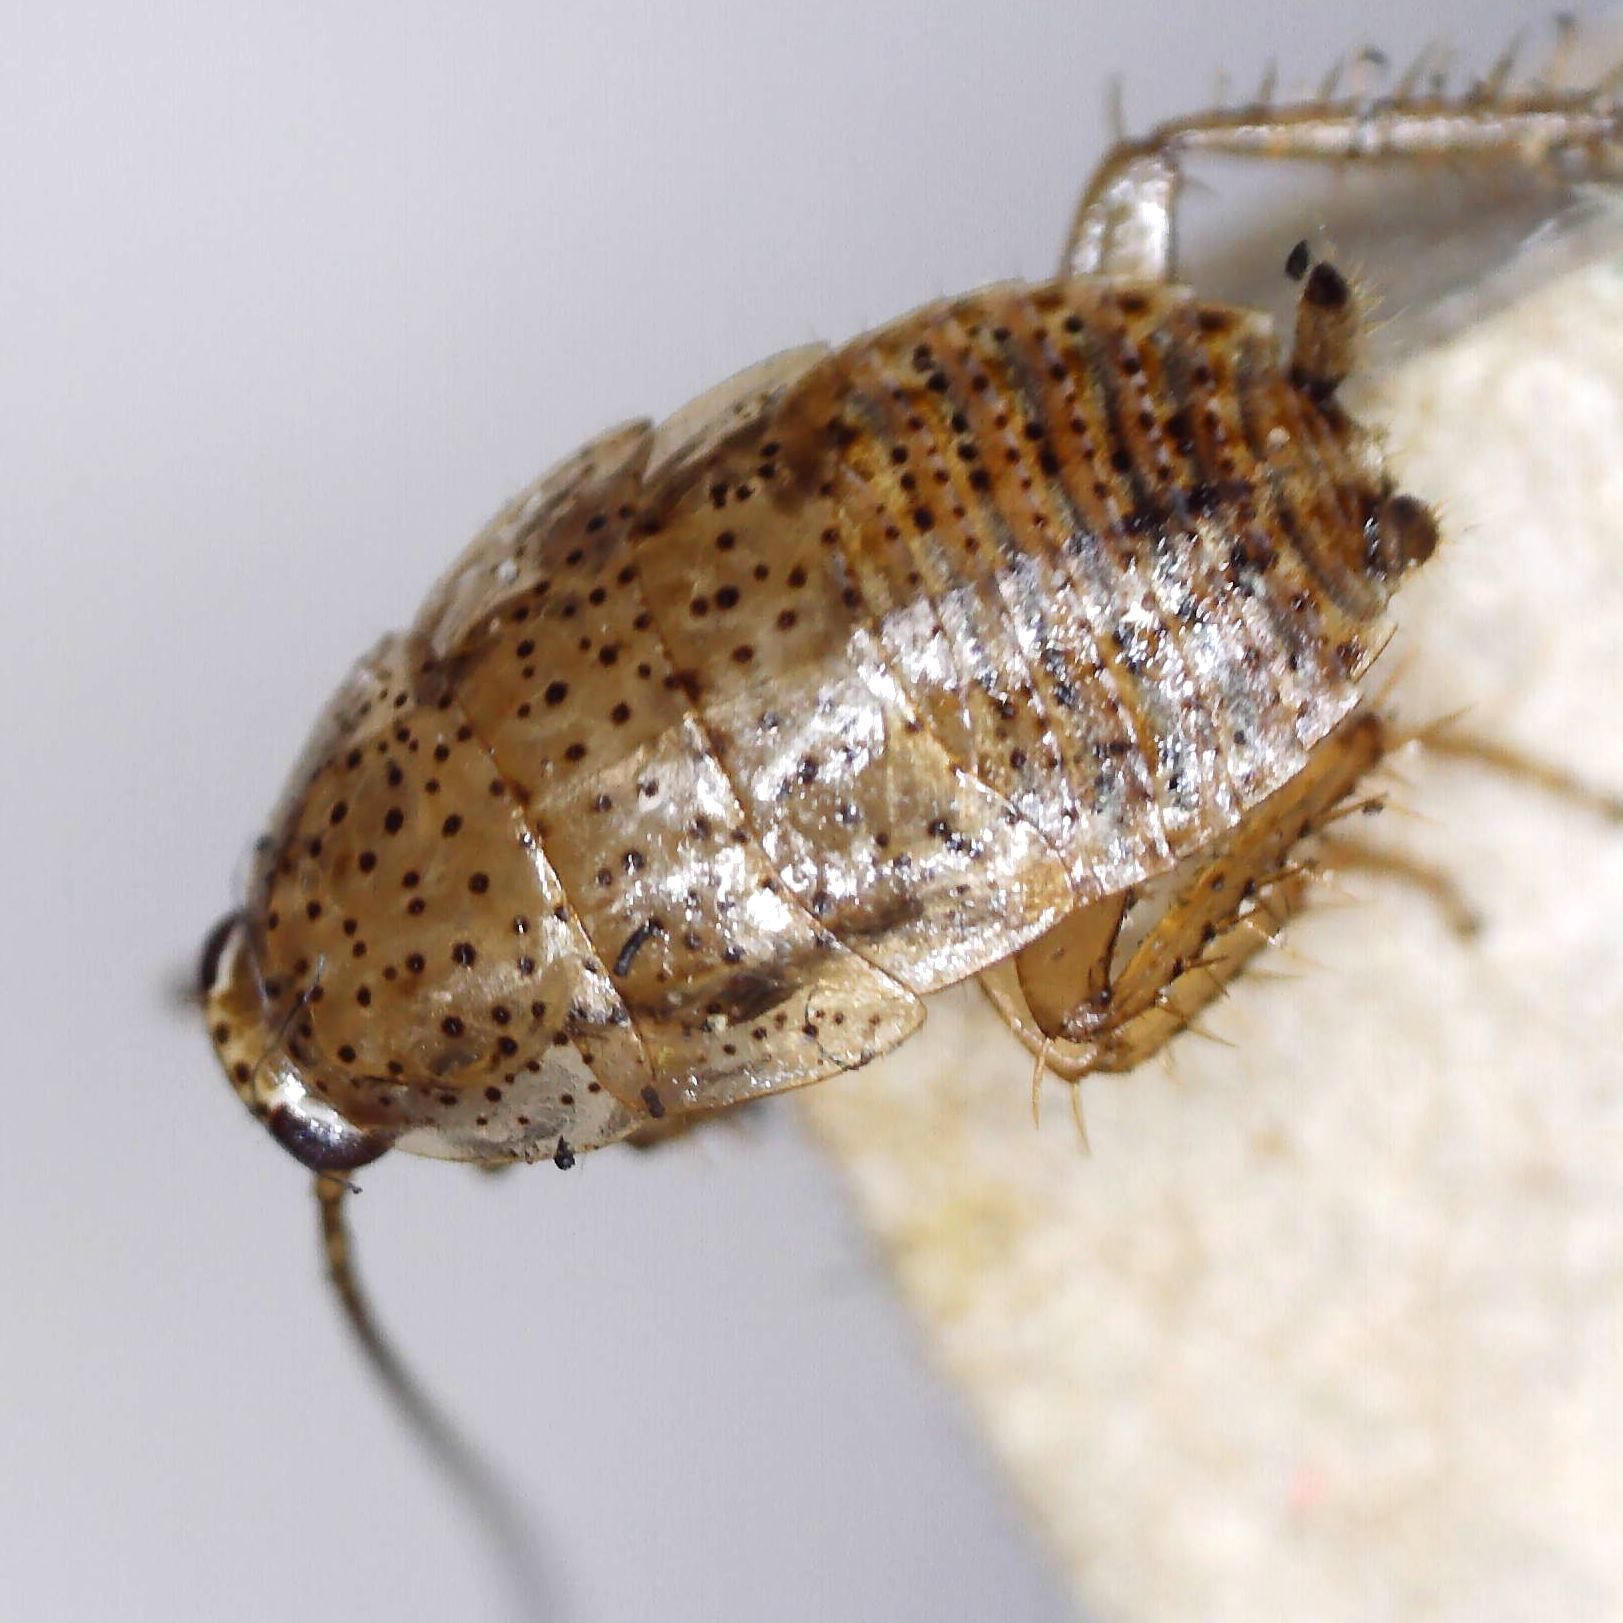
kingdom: Animalia
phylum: Arthropoda
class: Insecta
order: Blattodea
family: Ectobiidae
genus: Ectobius
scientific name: Ectobius pallidus
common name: Tawny cockroach
